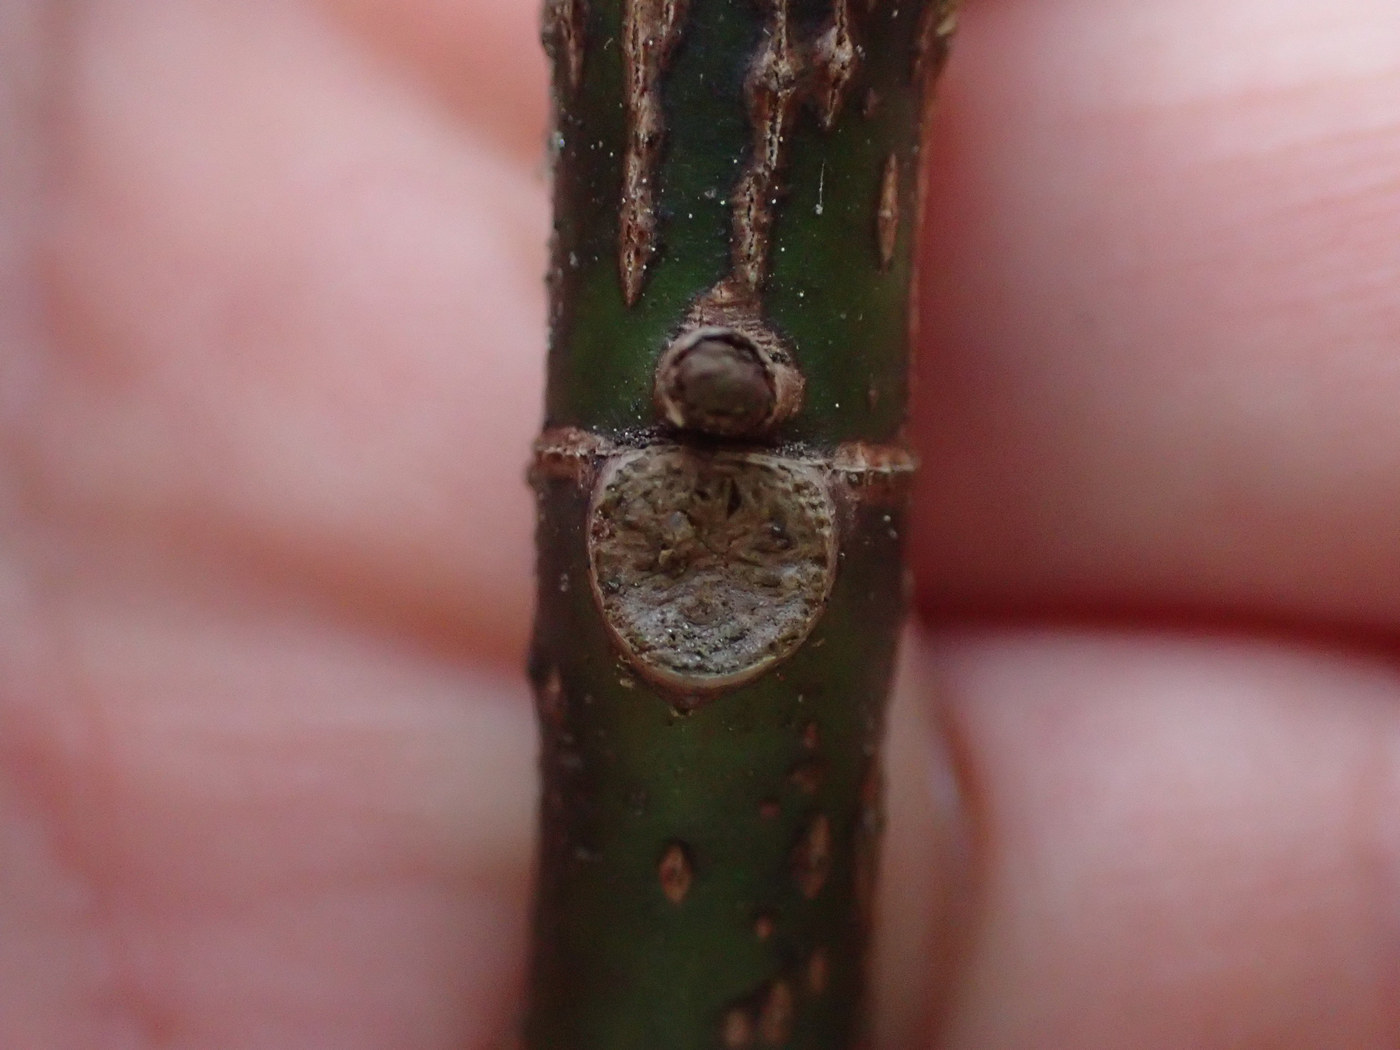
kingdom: Plantae
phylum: Tracheophyta
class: Magnoliopsida
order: Magnoliales
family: Magnoliaceae
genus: Magnolia
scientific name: Magnolia grandiflora
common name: Southern magnolia
